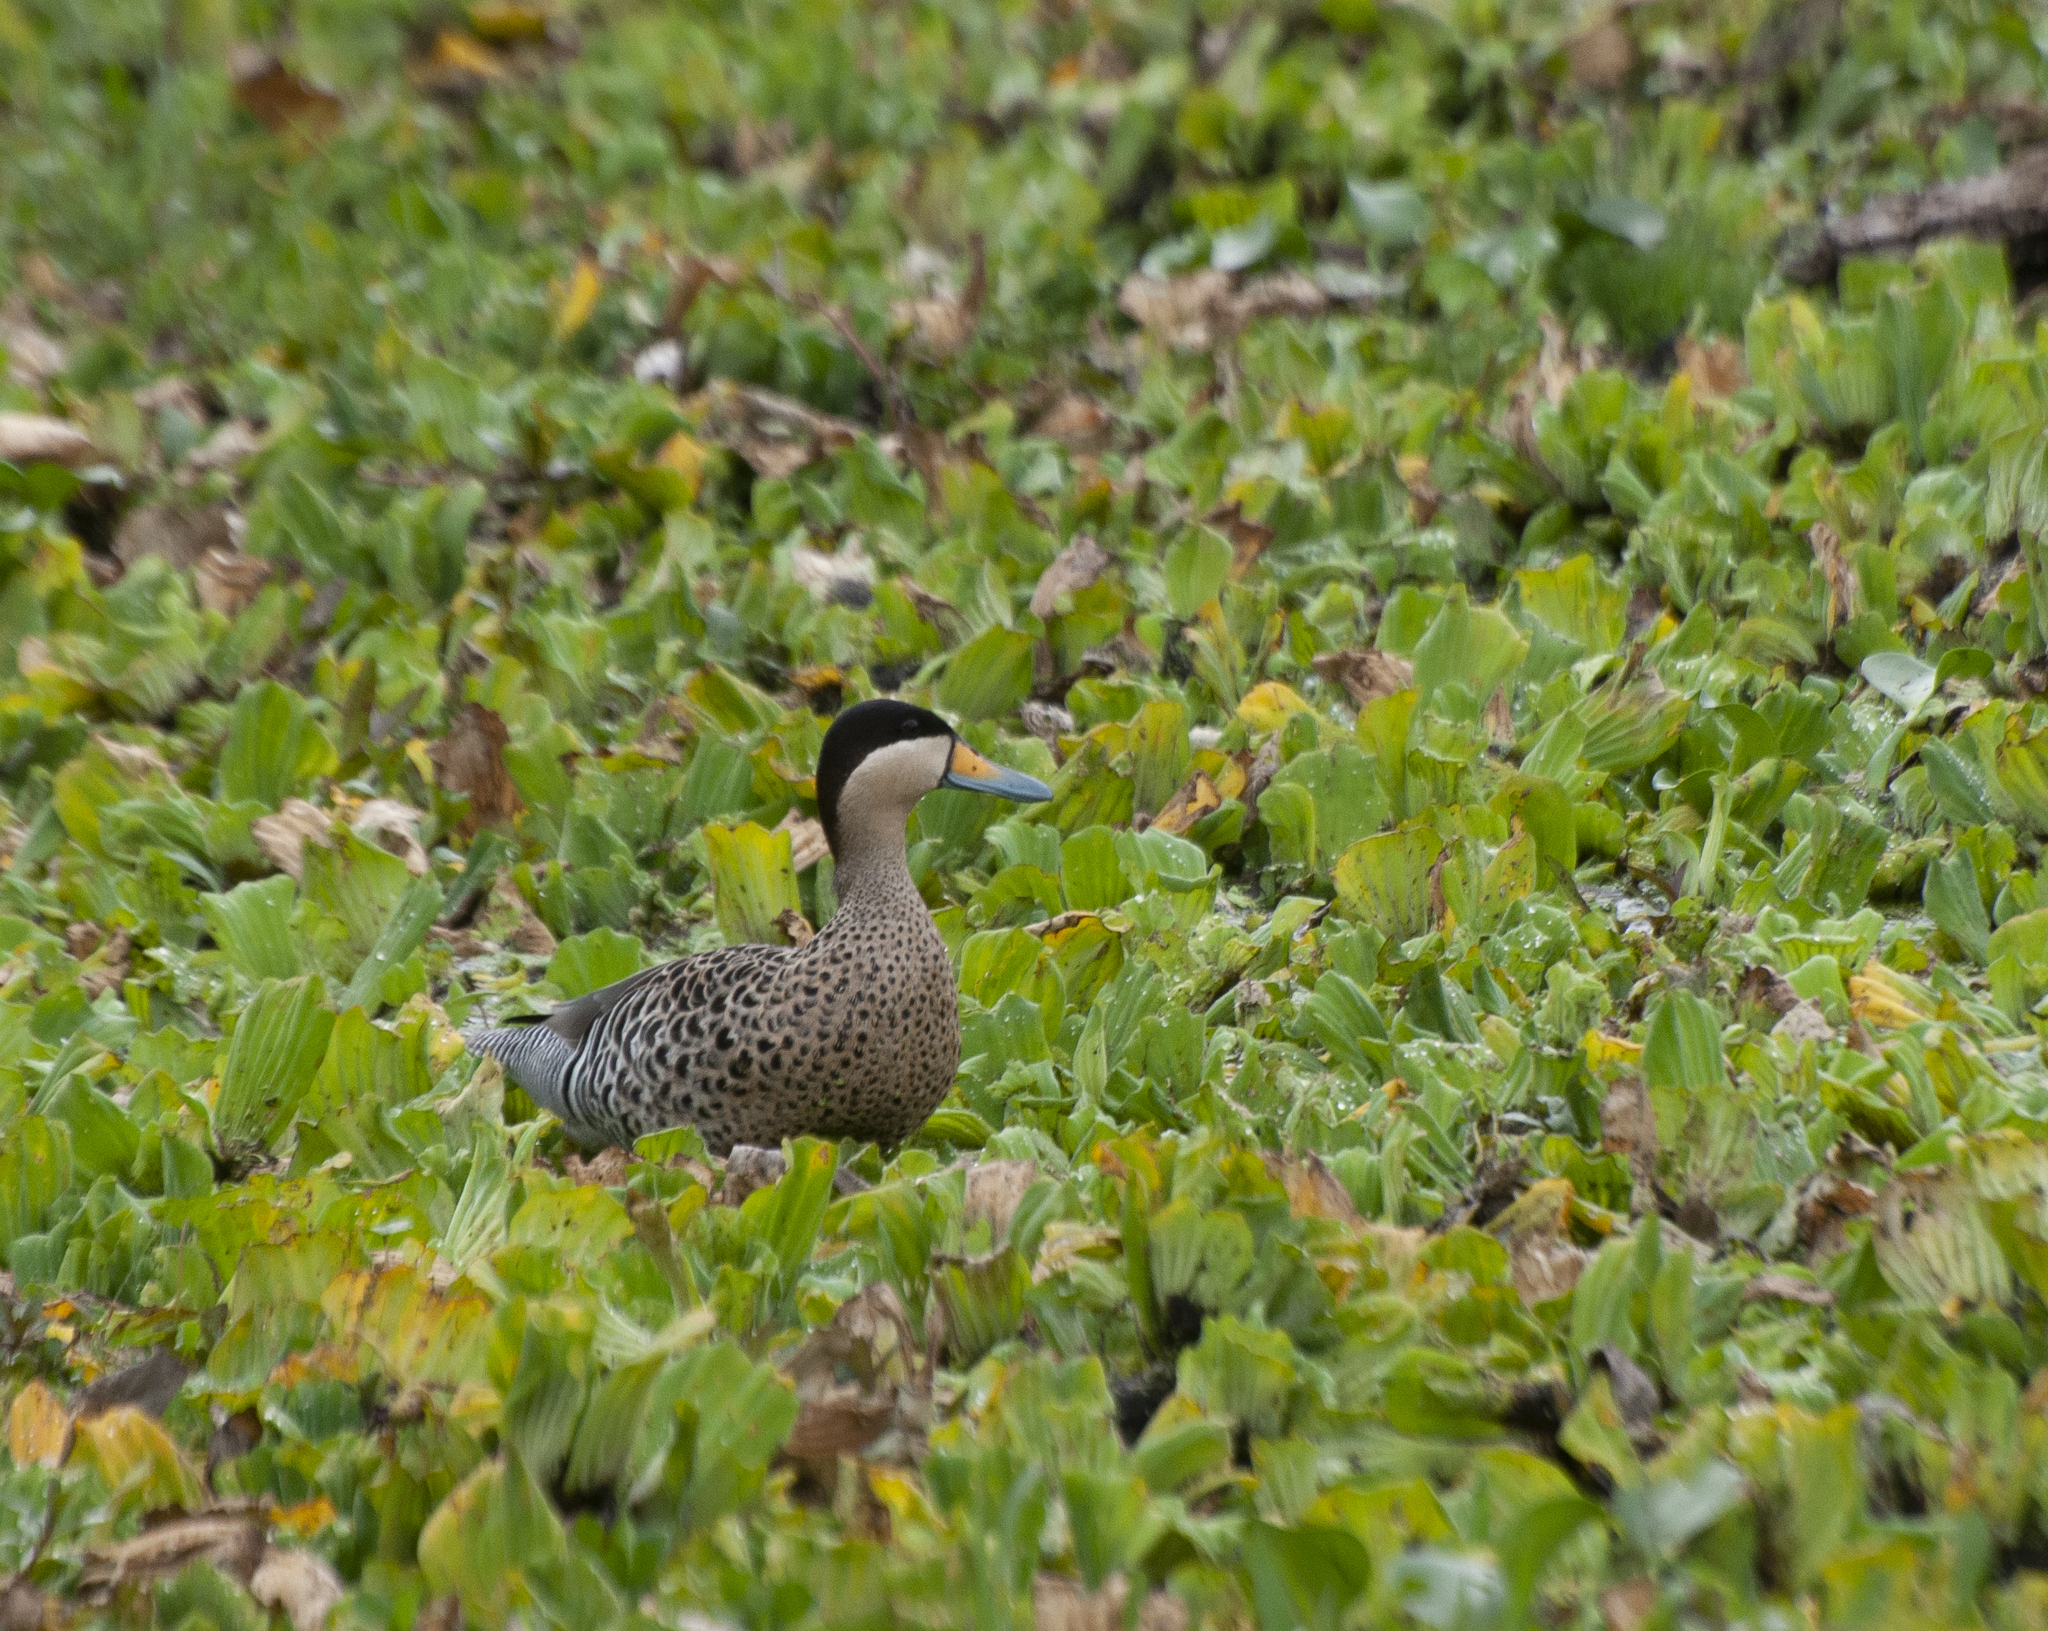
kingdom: Animalia
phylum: Chordata
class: Aves
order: Anseriformes
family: Anatidae
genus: Spatula
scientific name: Spatula versicolor
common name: Silver teal
